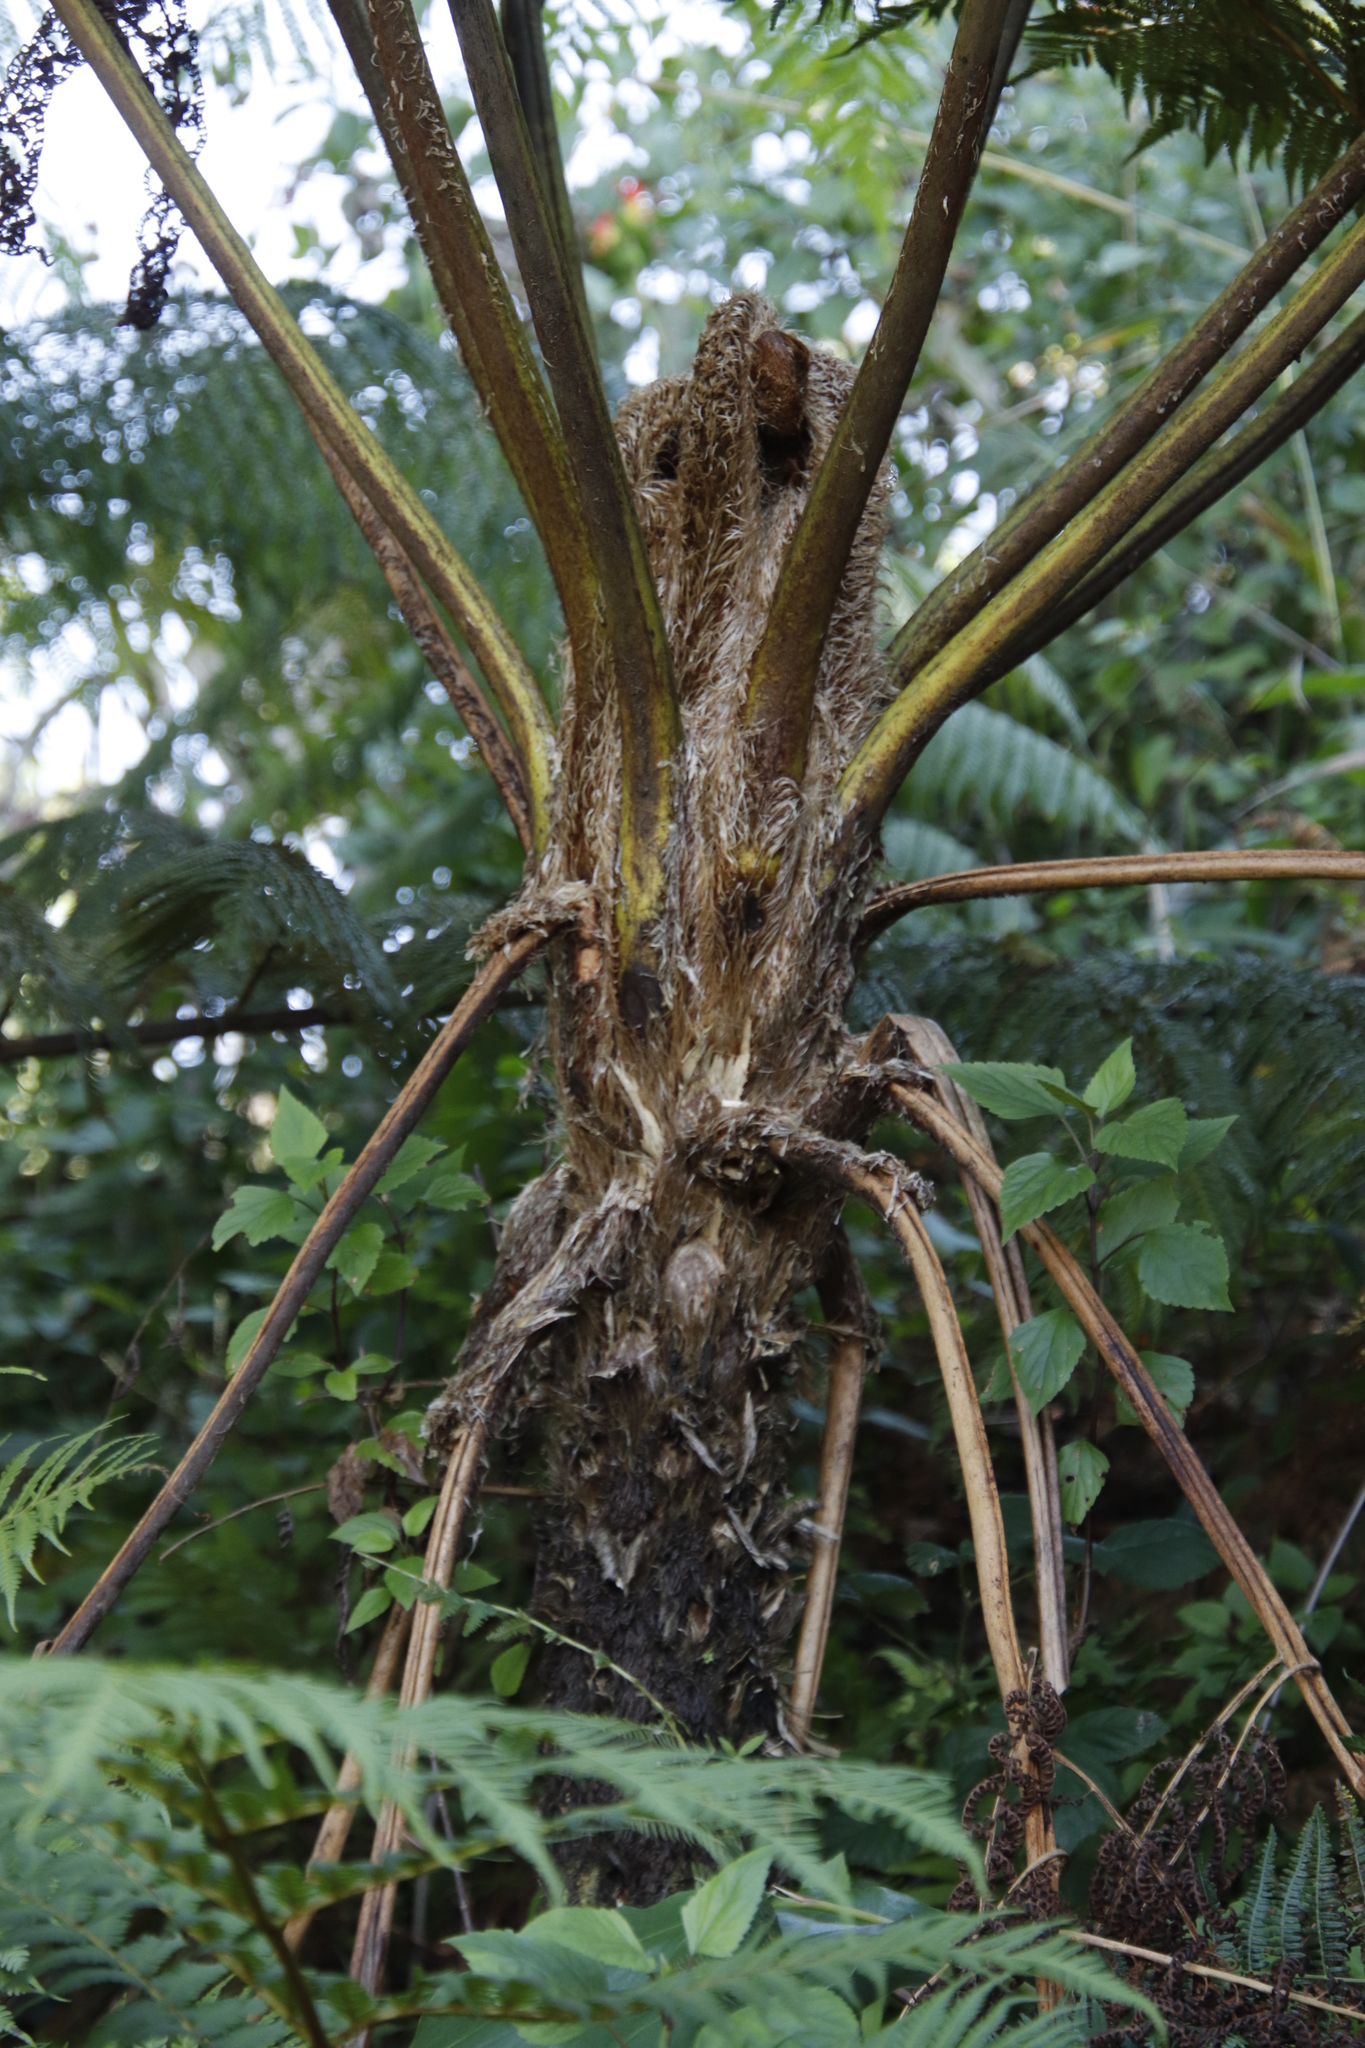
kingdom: Plantae
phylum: Tracheophyta
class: Polypodiopsida
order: Cyatheales
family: Cyatheaceae
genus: Sphaeropteris
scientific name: Sphaeropteris cooperi
